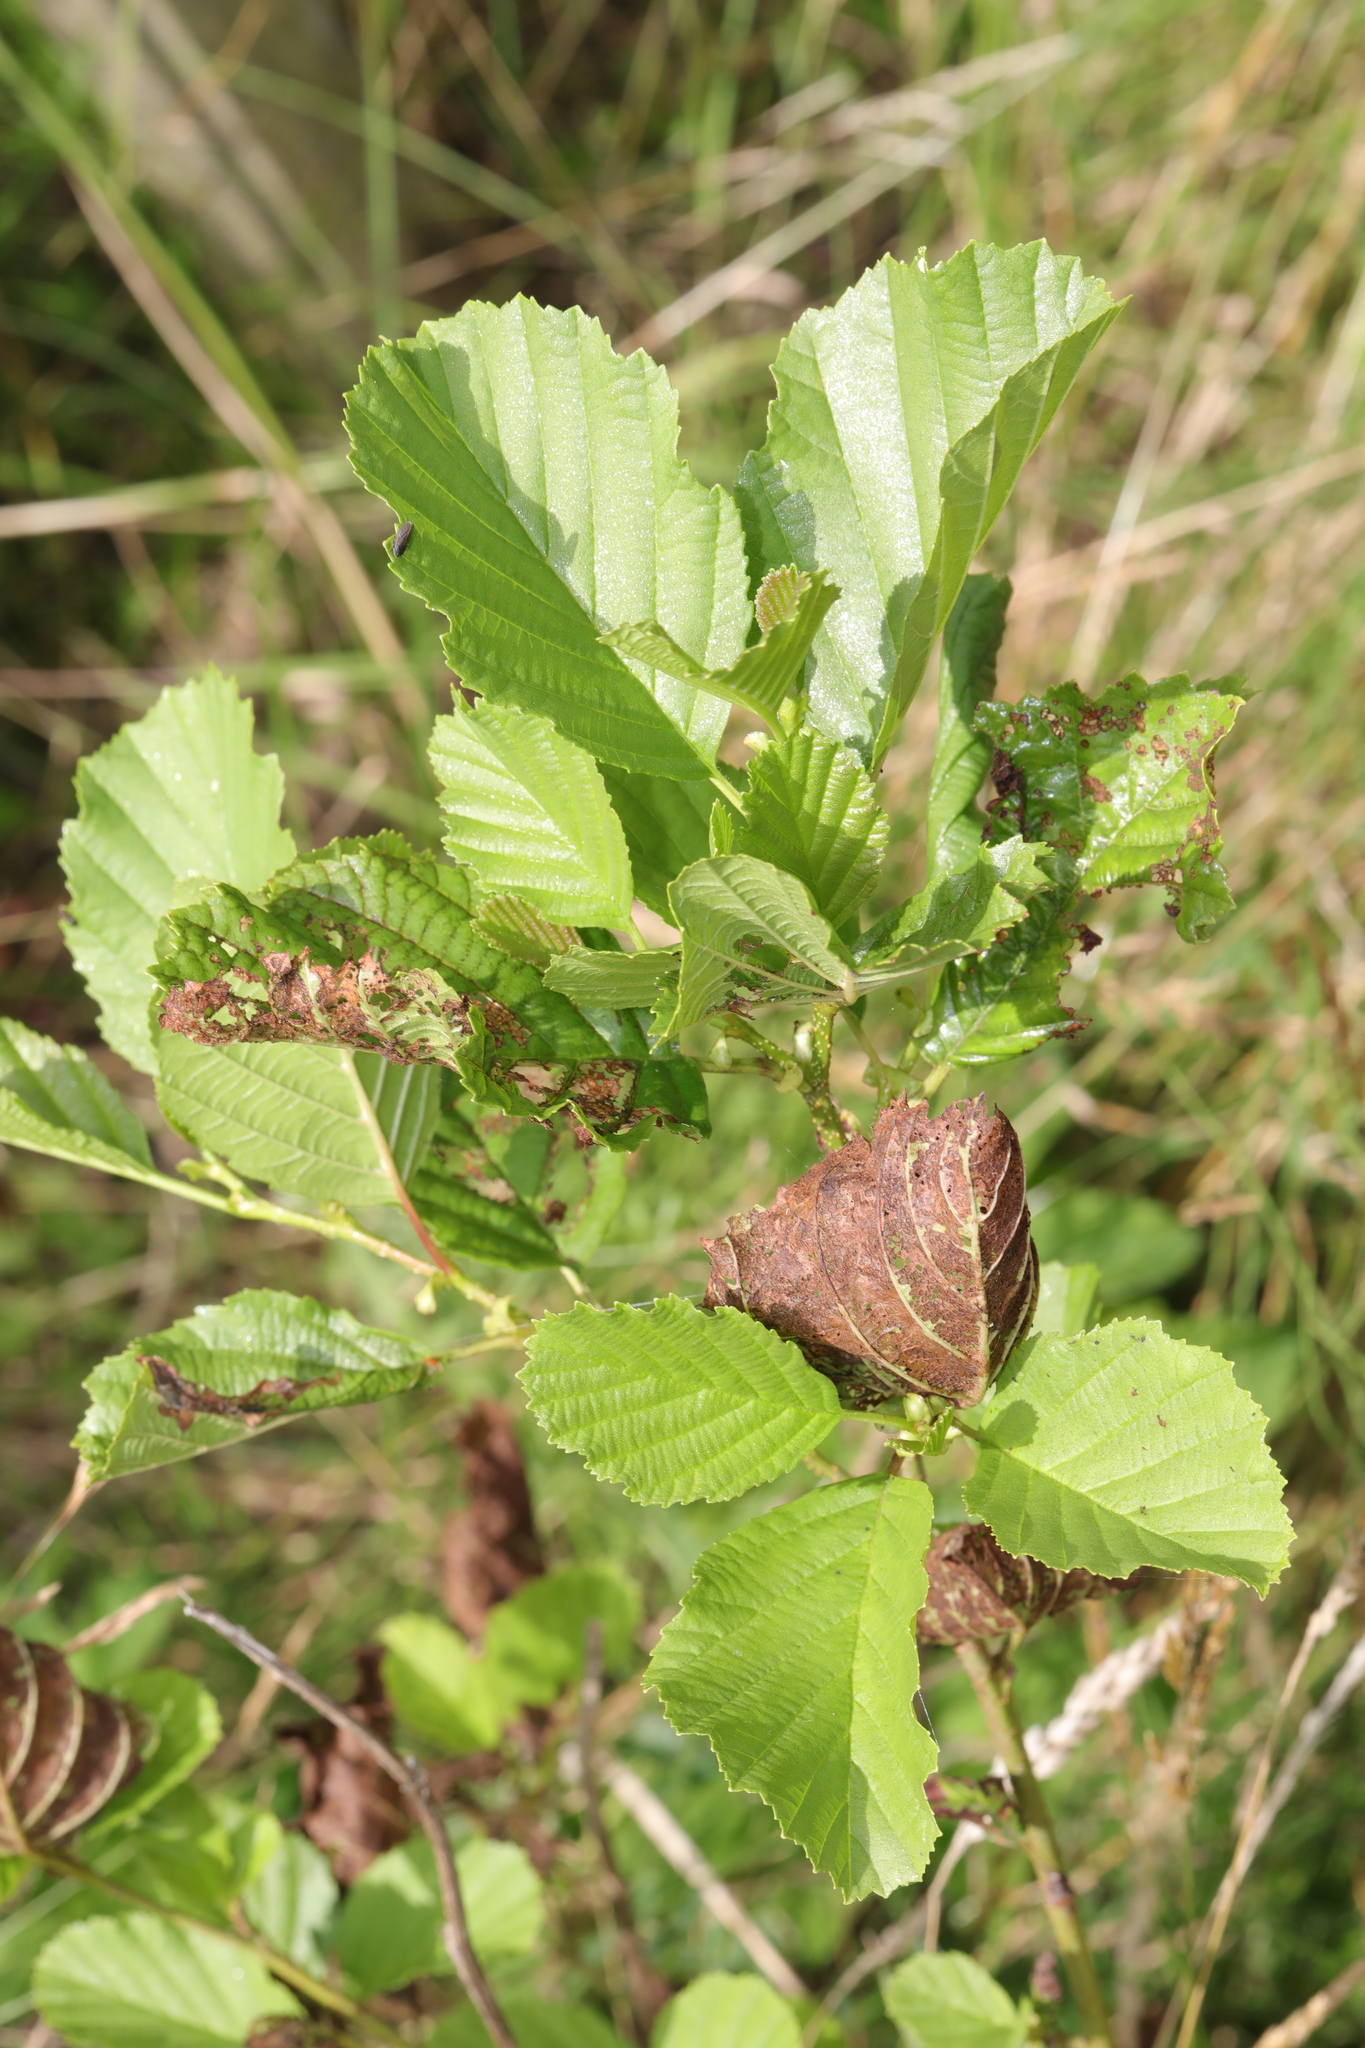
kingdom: Plantae
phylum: Tracheophyta
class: Magnoliopsida
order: Fagales
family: Betulaceae
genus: Alnus
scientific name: Alnus glutinosa
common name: Black alder
